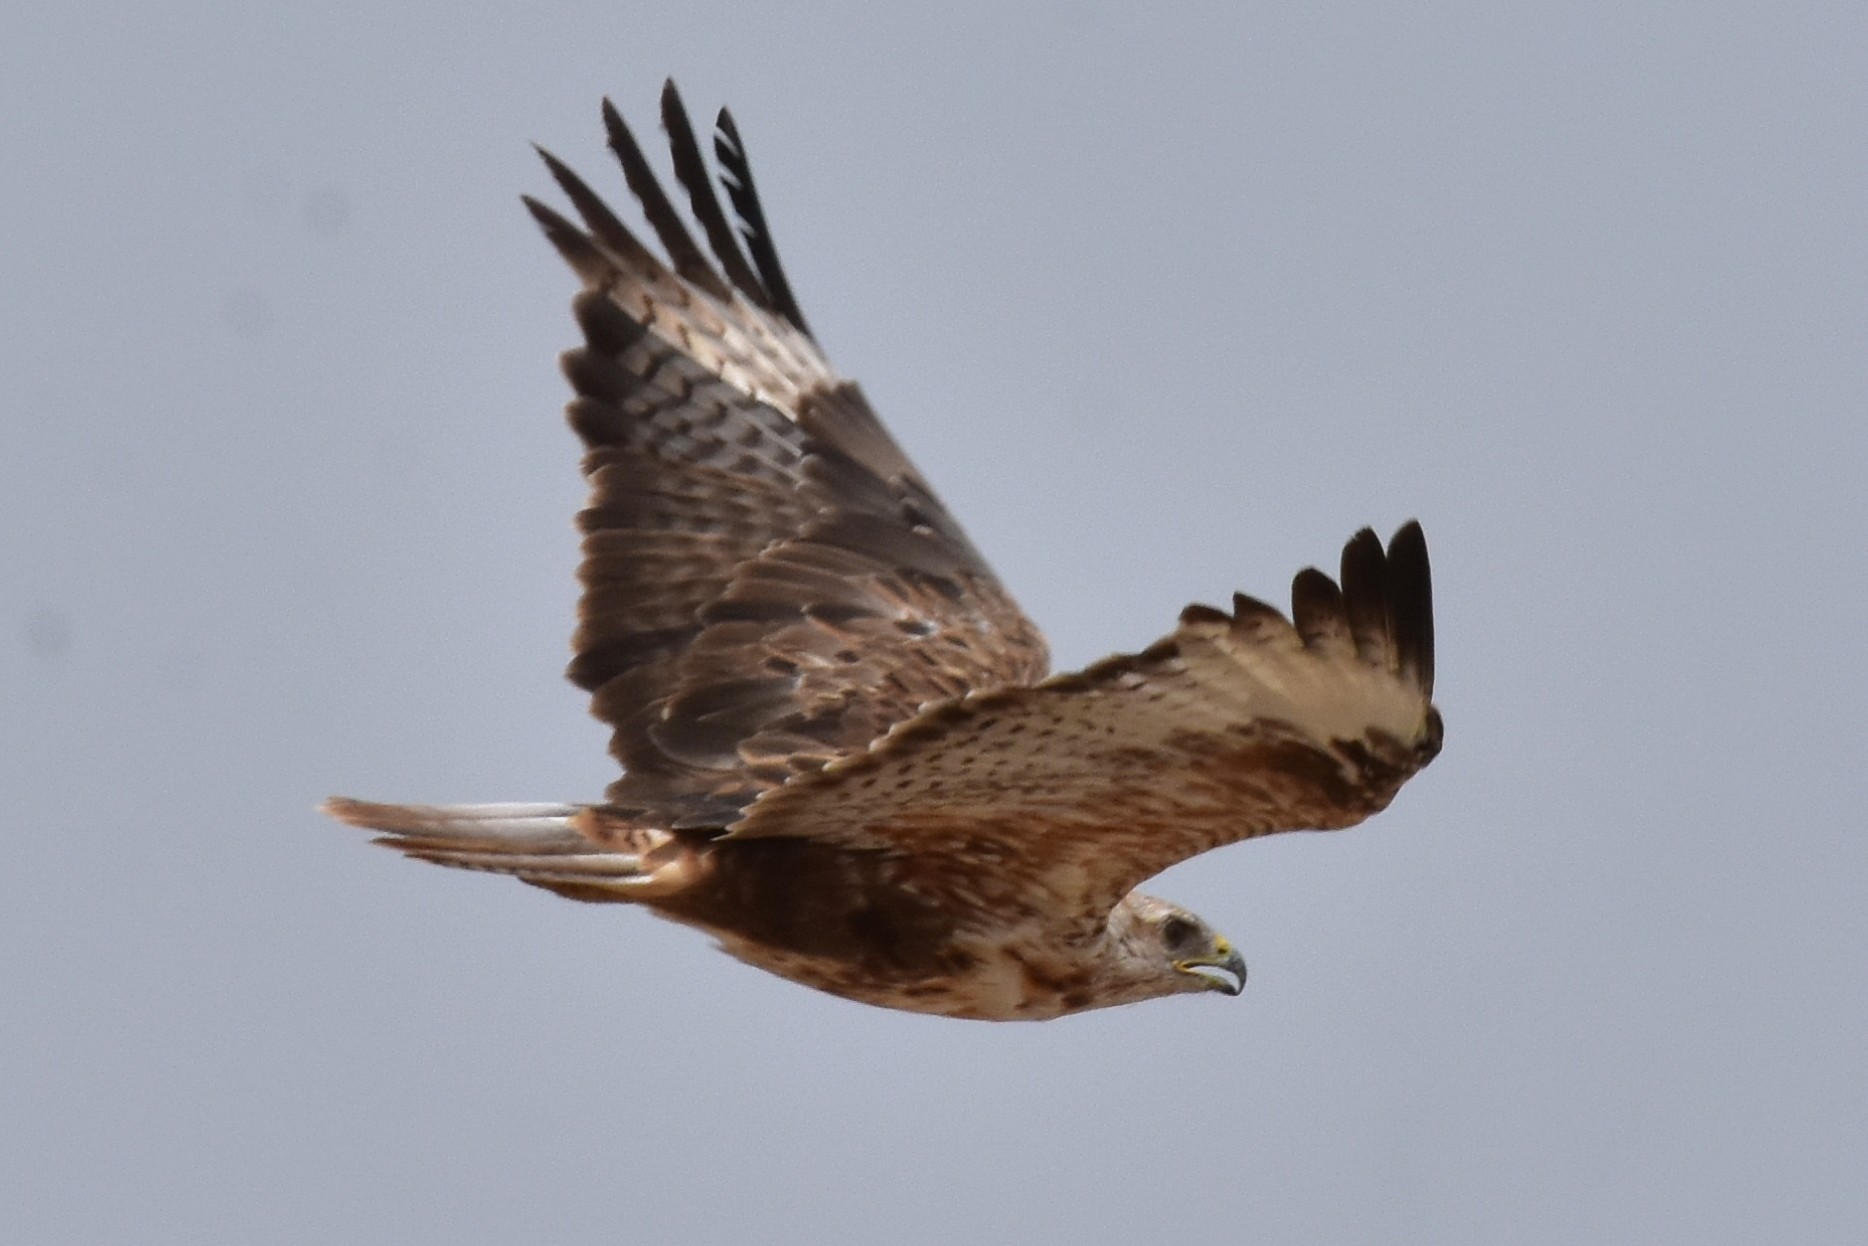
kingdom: Animalia
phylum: Chordata
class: Aves
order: Accipitriformes
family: Accipitridae
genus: Buteo
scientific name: Buteo rufinus
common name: Long-legged buzzard
